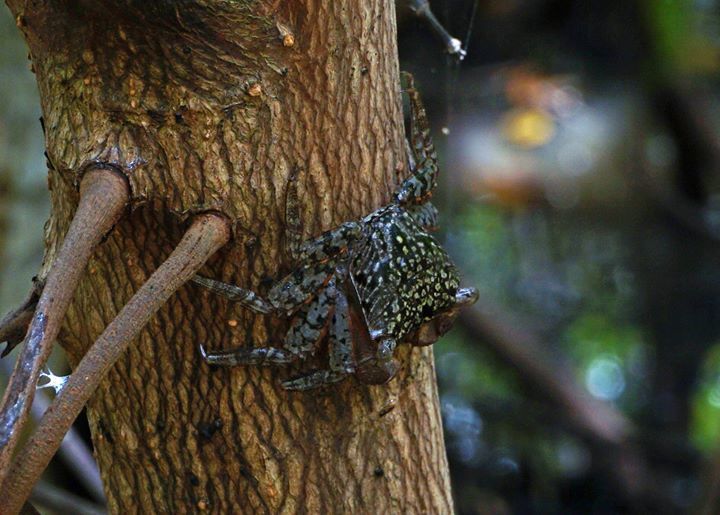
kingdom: Animalia
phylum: Arthropoda
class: Malacostraca
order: Decapoda
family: Sesarmidae
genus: Aratus
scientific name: Aratus pisonii
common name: Mangrove crab
